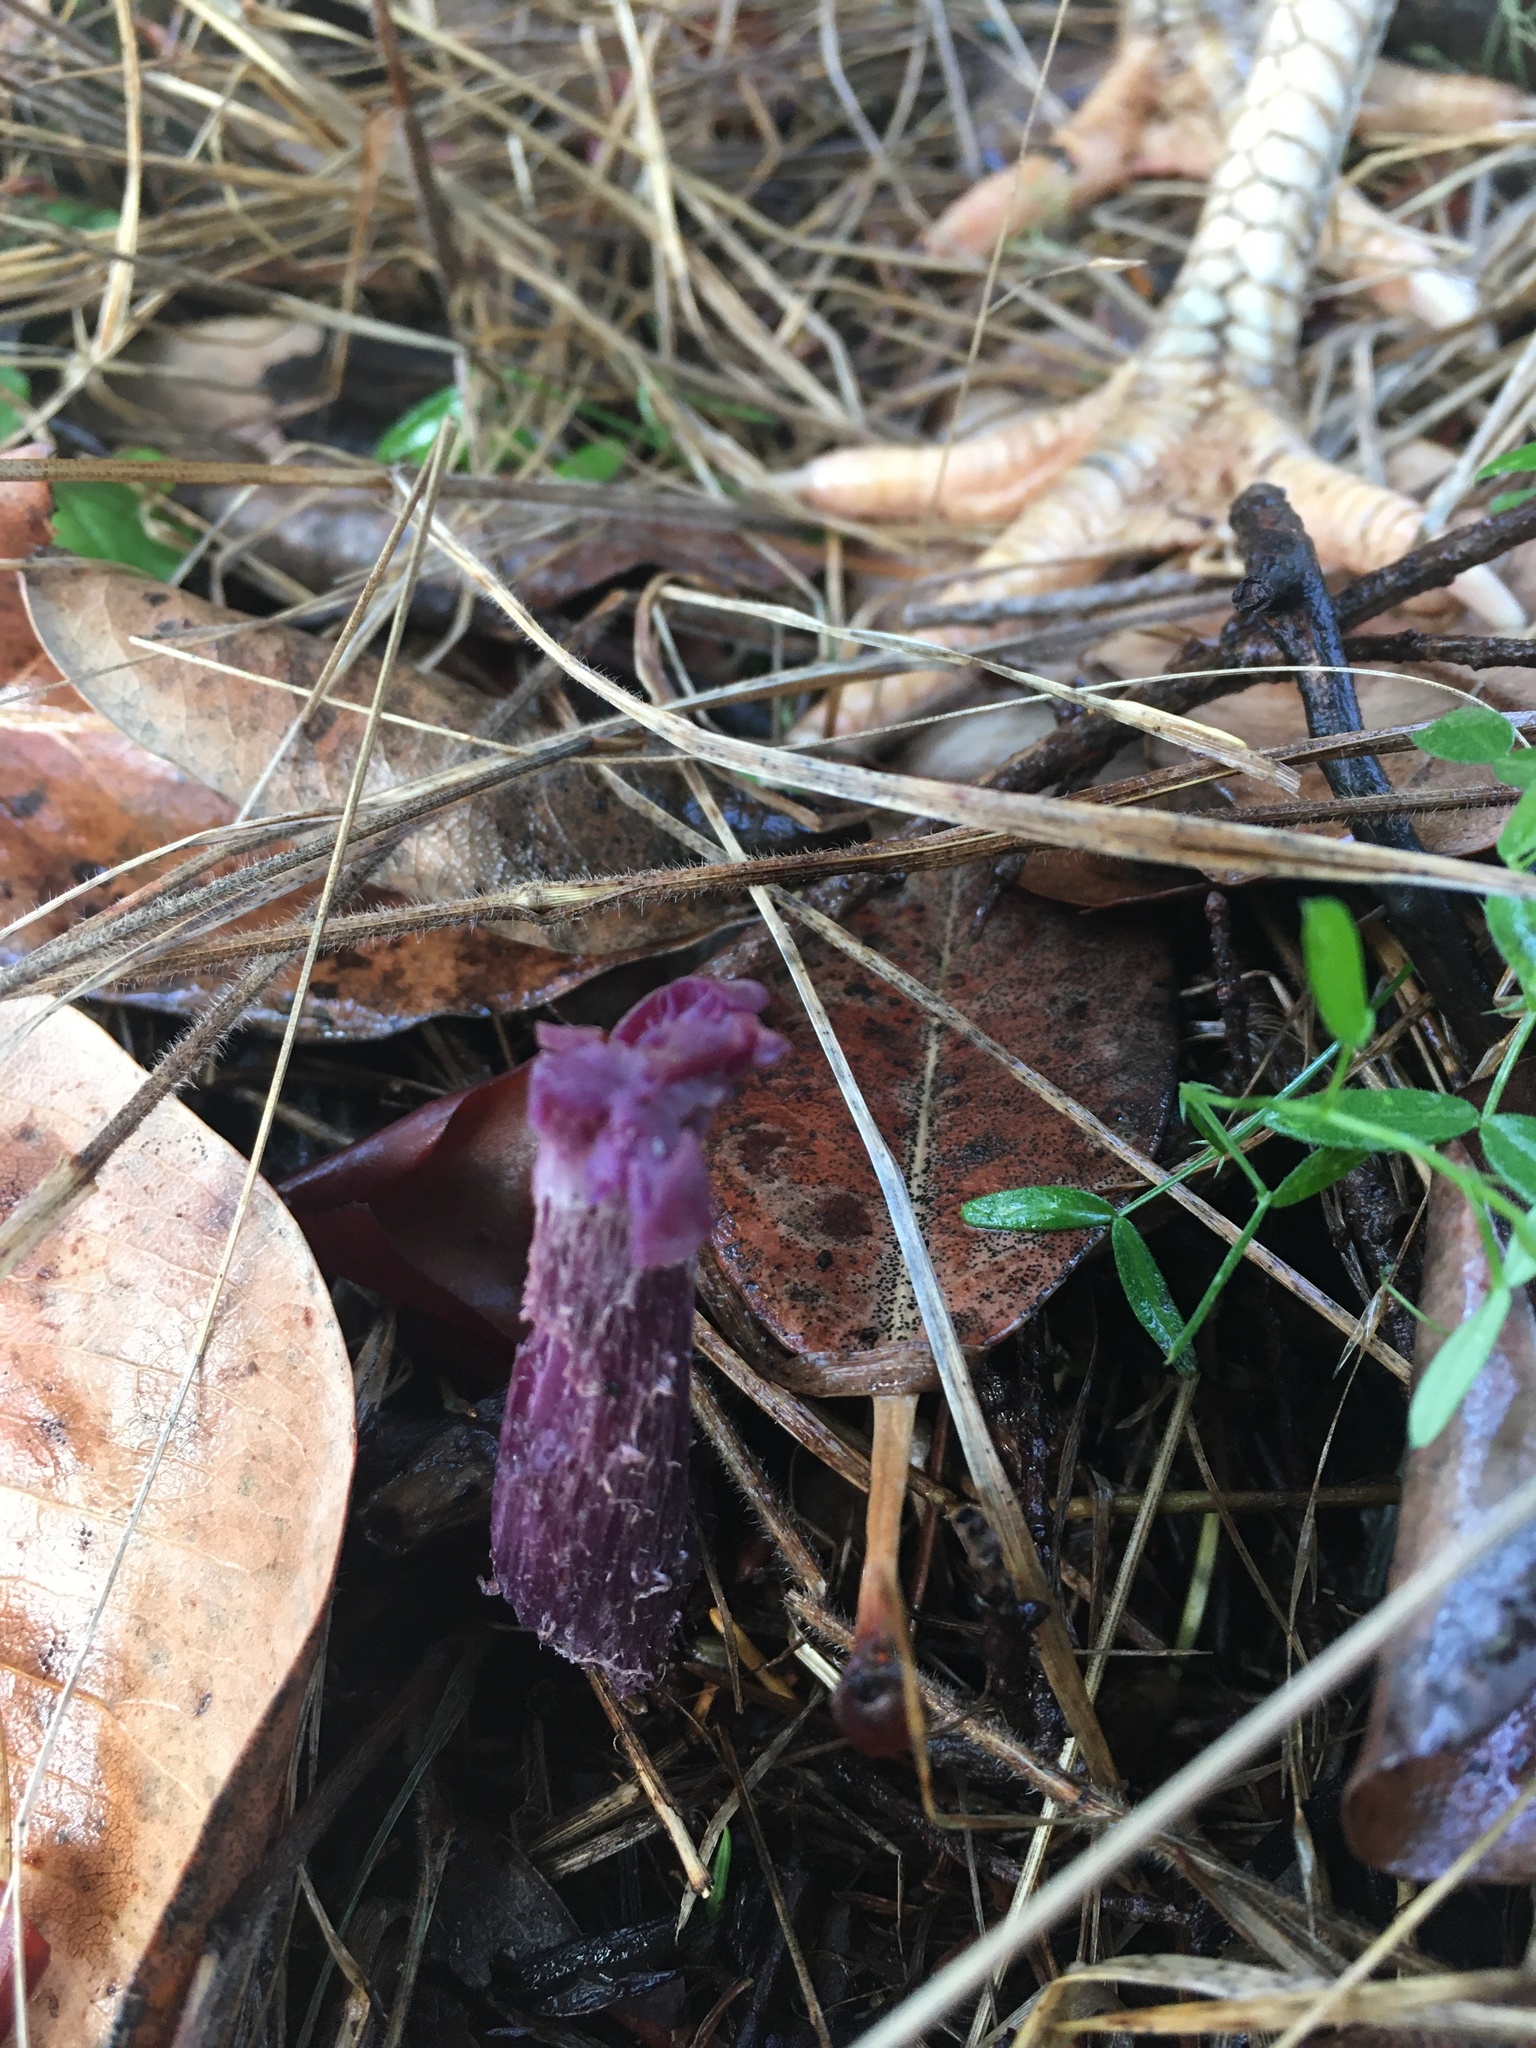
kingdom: Fungi
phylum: Basidiomycota
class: Agaricomycetes
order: Agaricales
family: Hydnangiaceae
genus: Laccaria
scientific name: Laccaria amethysteo-occidentalis
